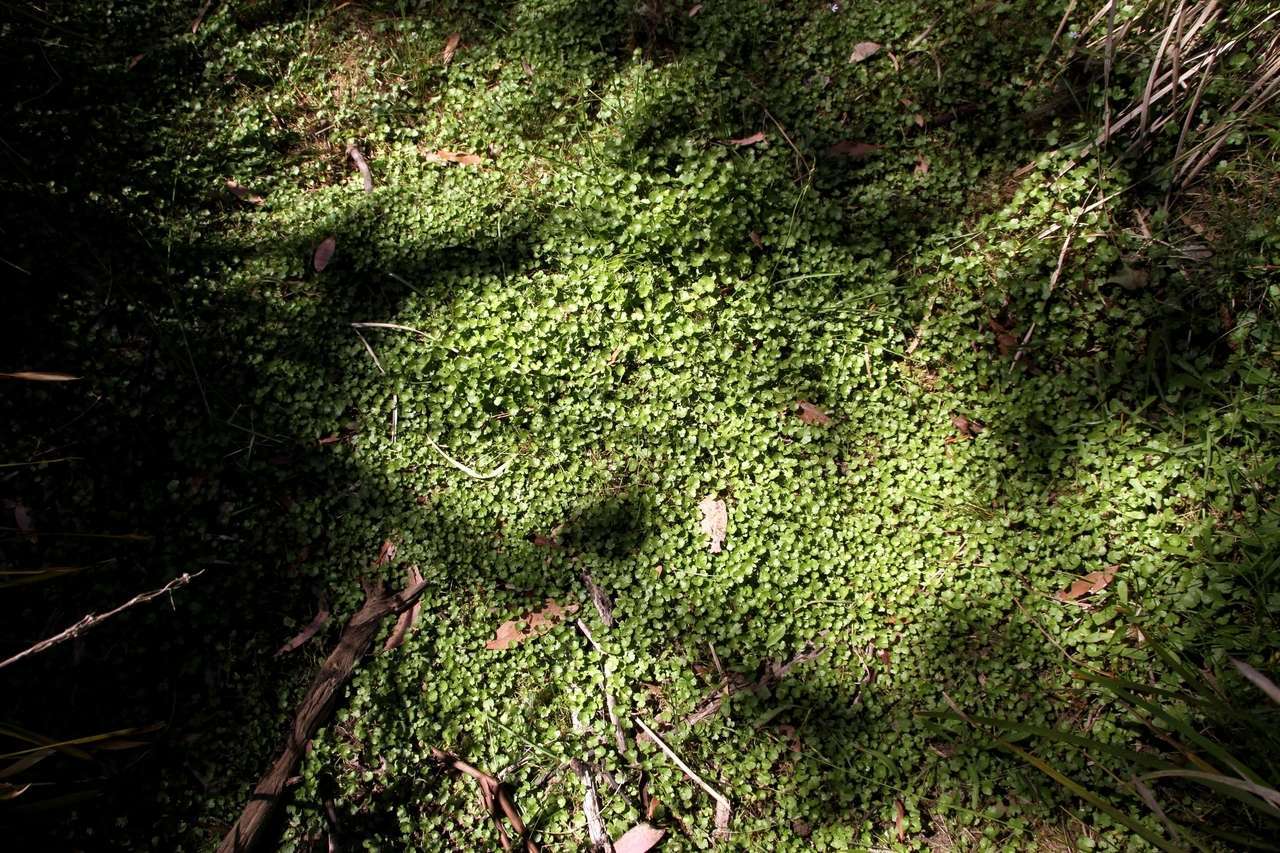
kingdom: Plantae
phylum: Tracheophyta
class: Magnoliopsida
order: Apiales
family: Araliaceae
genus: Hydrocotyle
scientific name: Hydrocotyle sibthorpioides
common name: Lawn marshpennywort
